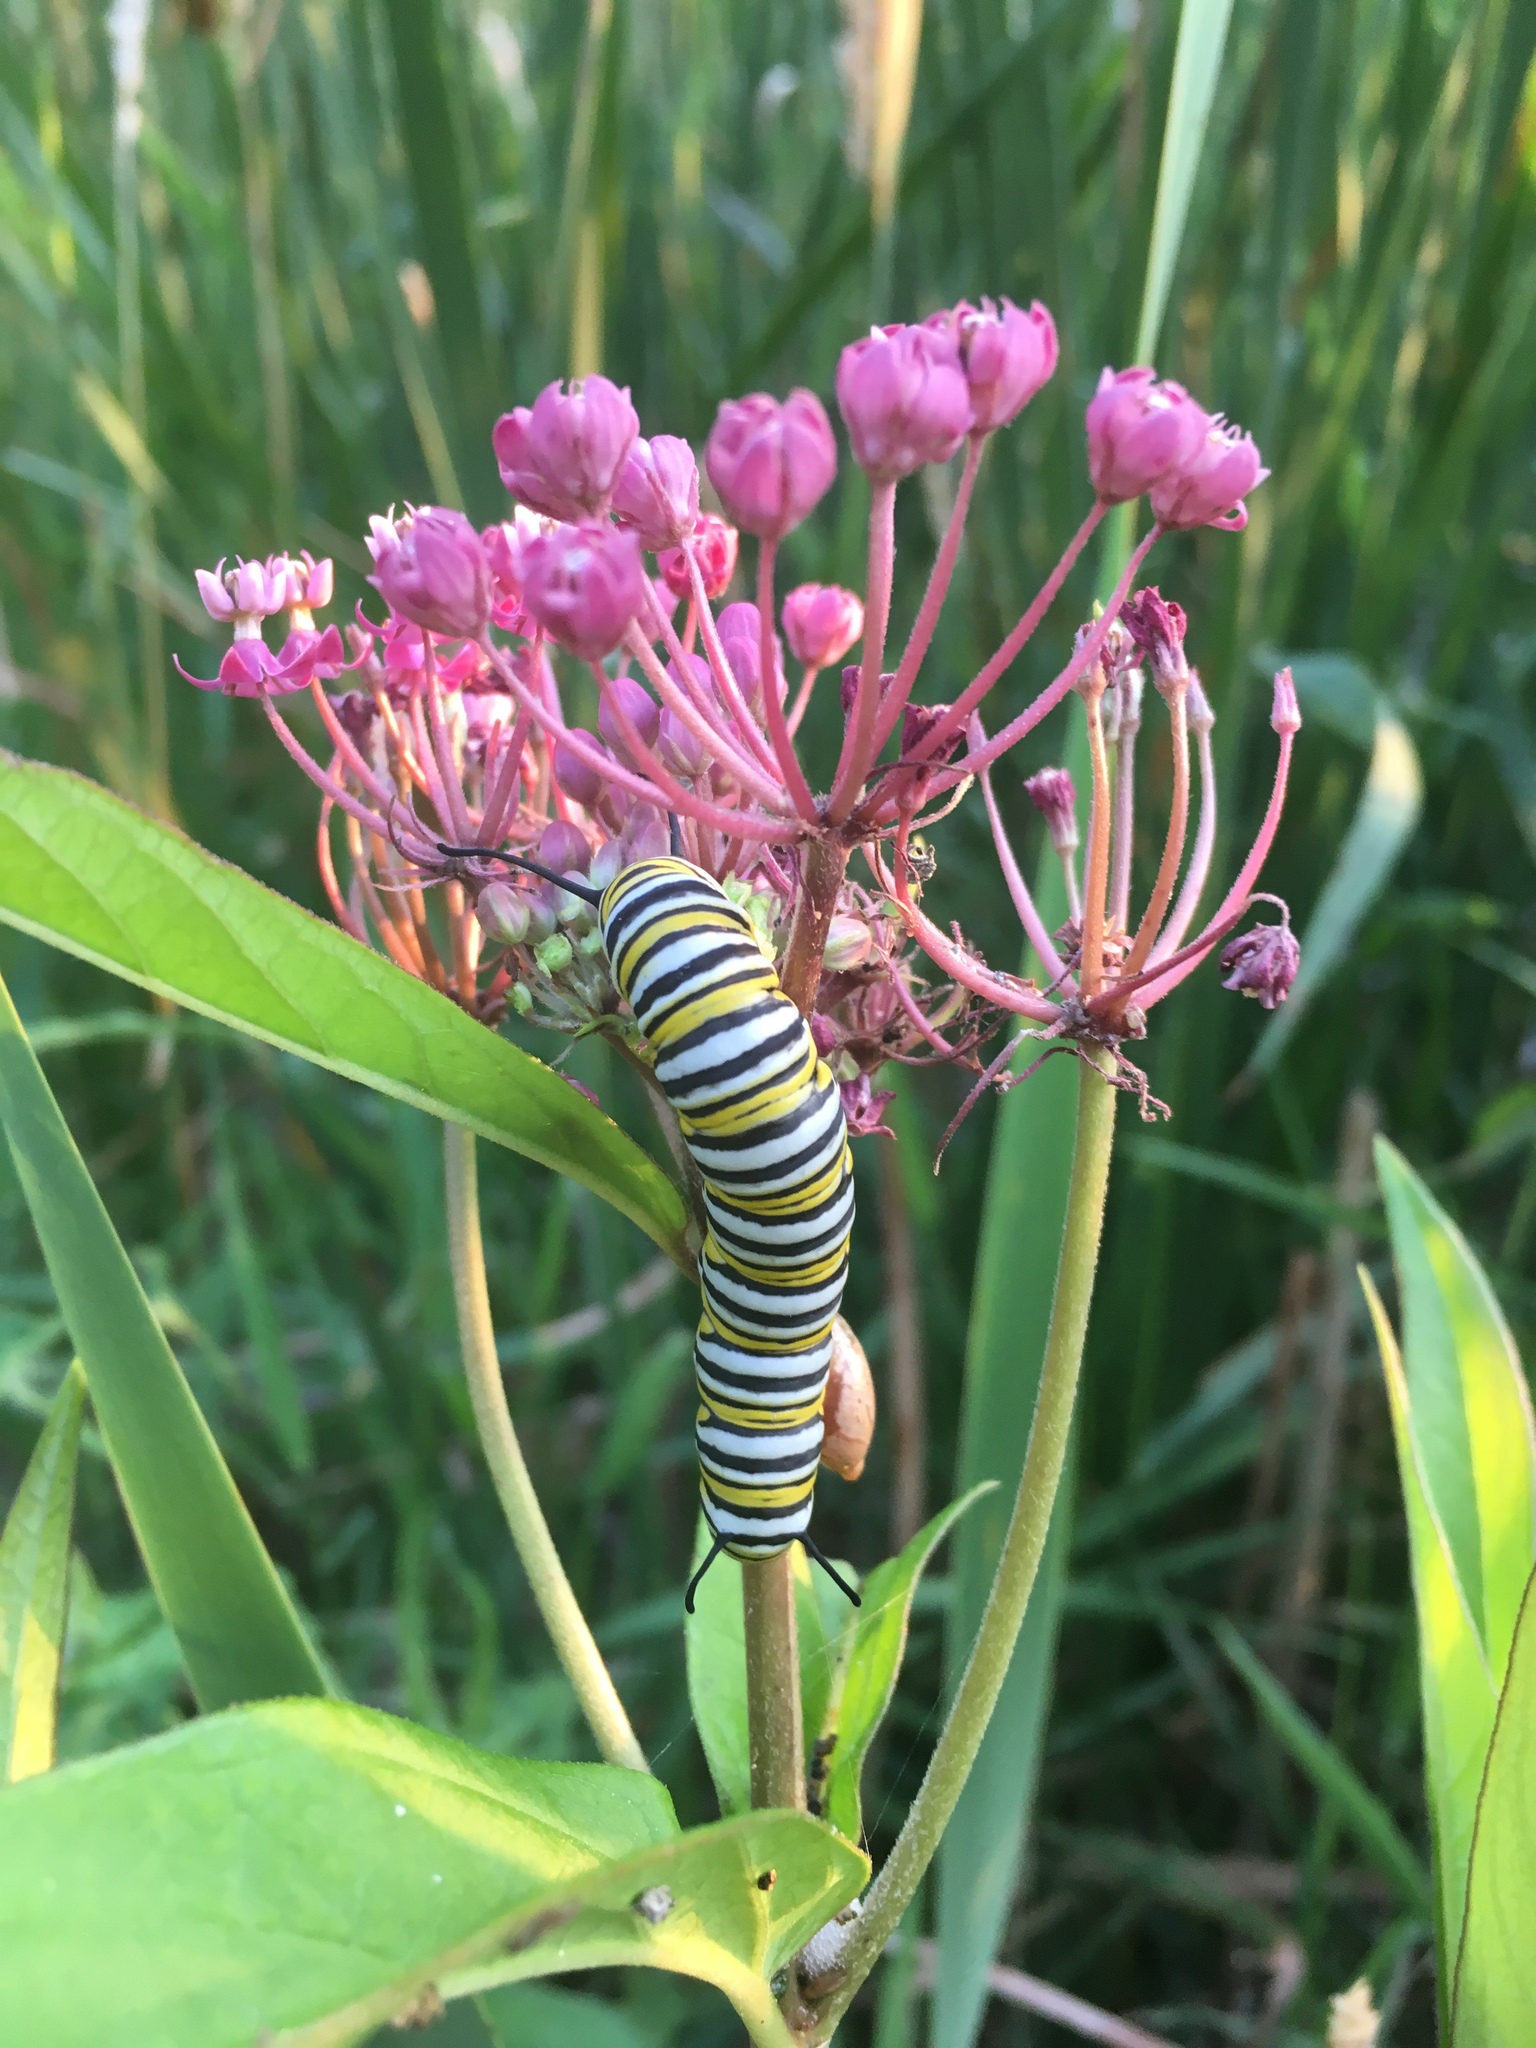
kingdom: Animalia
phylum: Arthropoda
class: Insecta
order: Lepidoptera
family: Nymphalidae
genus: Danaus
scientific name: Danaus plexippus
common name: Monarch
